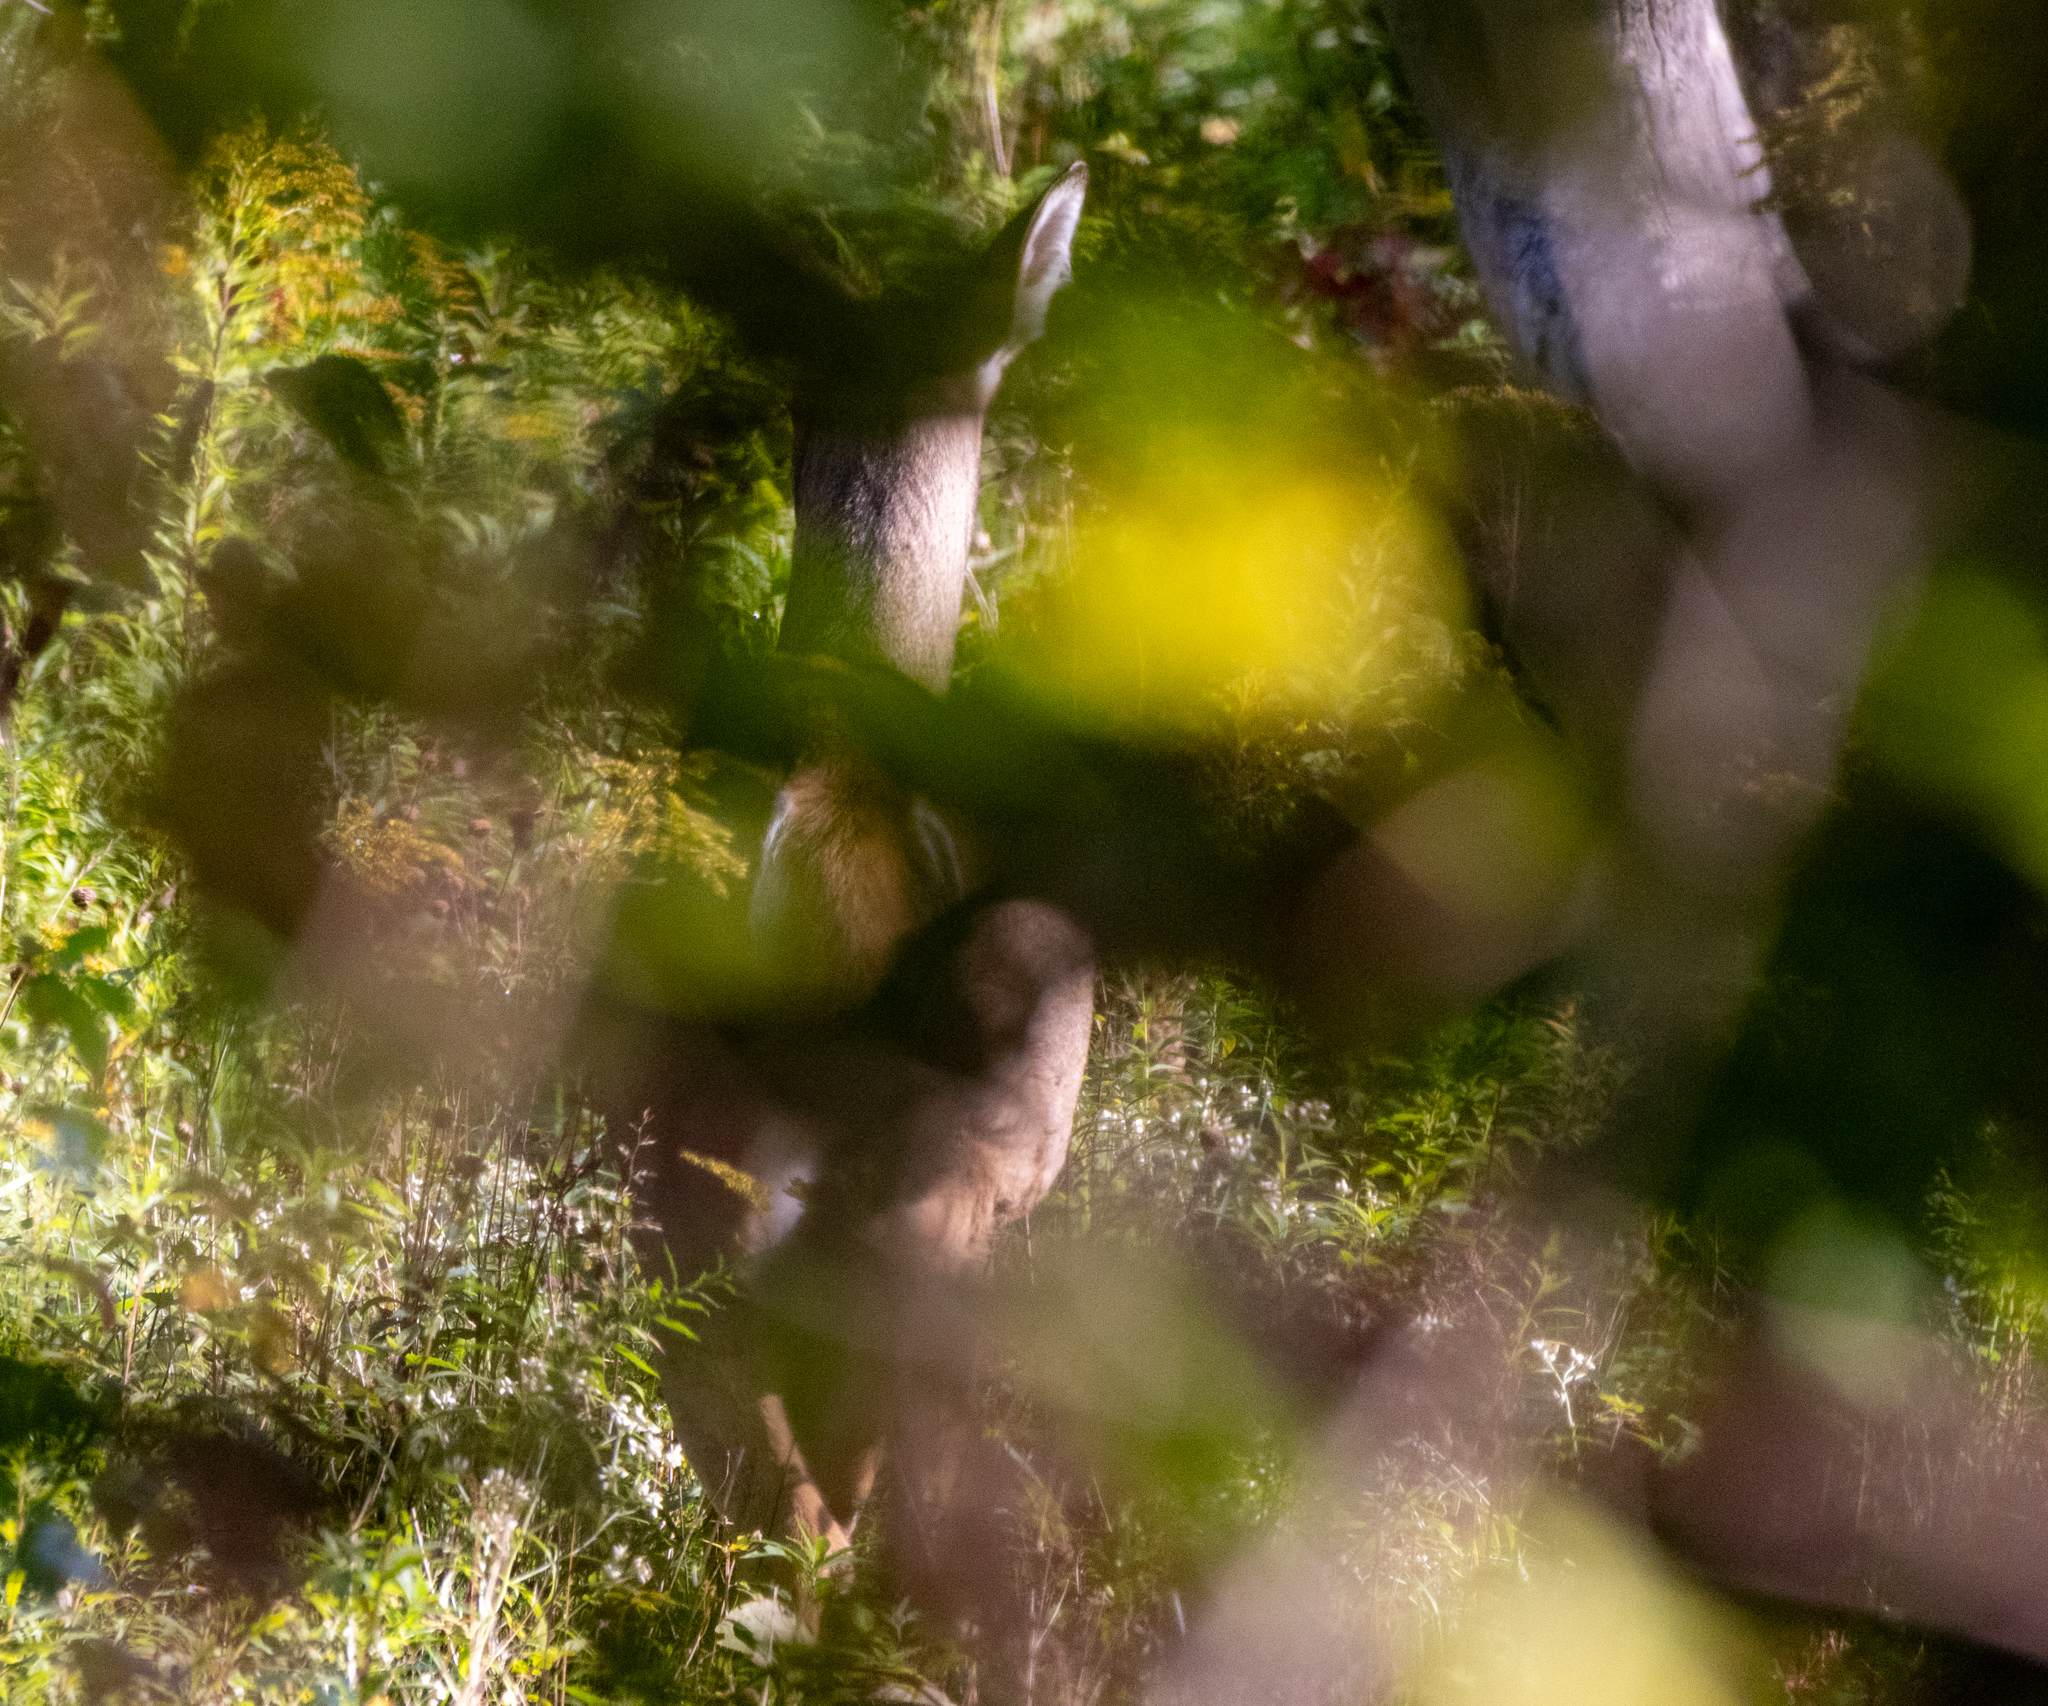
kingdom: Animalia
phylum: Chordata
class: Mammalia
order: Artiodactyla
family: Cervidae
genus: Odocoileus
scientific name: Odocoileus virginianus
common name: White-tailed deer
